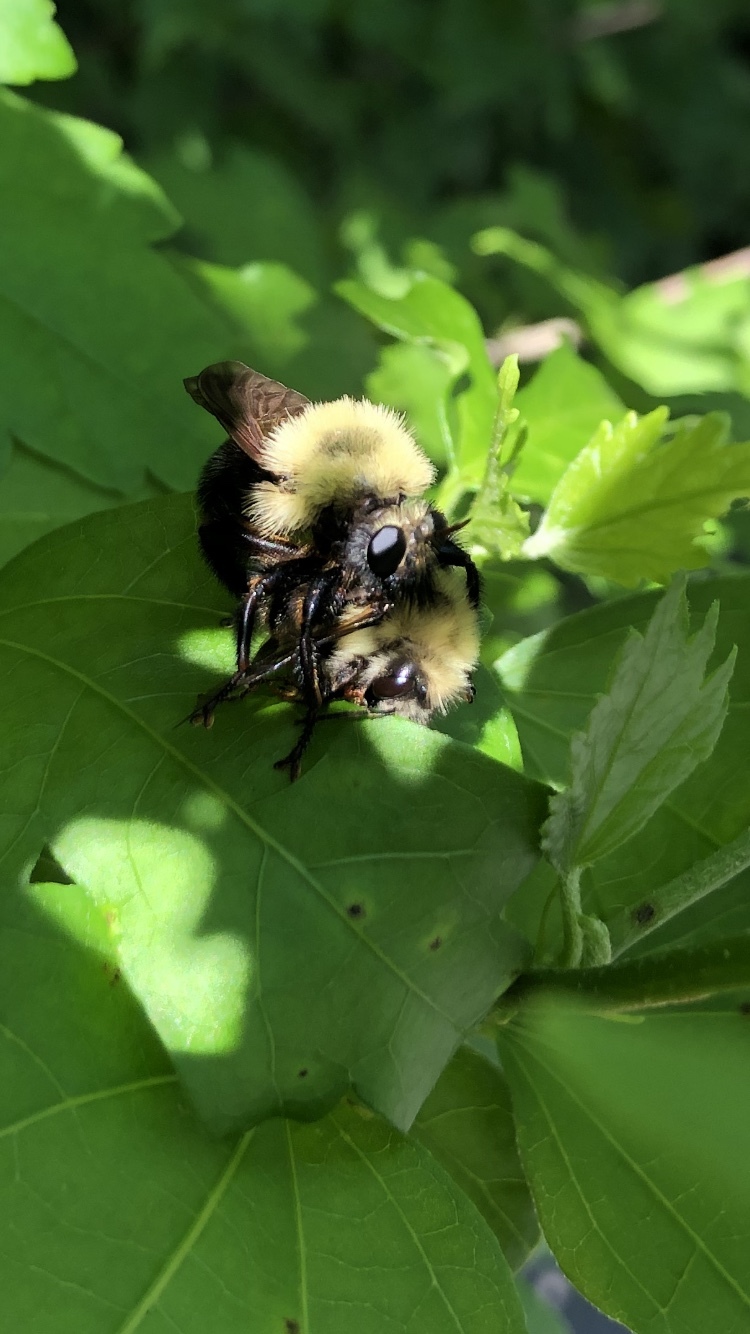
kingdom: Animalia
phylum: Arthropoda
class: Insecta
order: Diptera
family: Asilidae
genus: Laphria
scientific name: Laphria thoracica
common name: Bumble bee mimic robber fly
